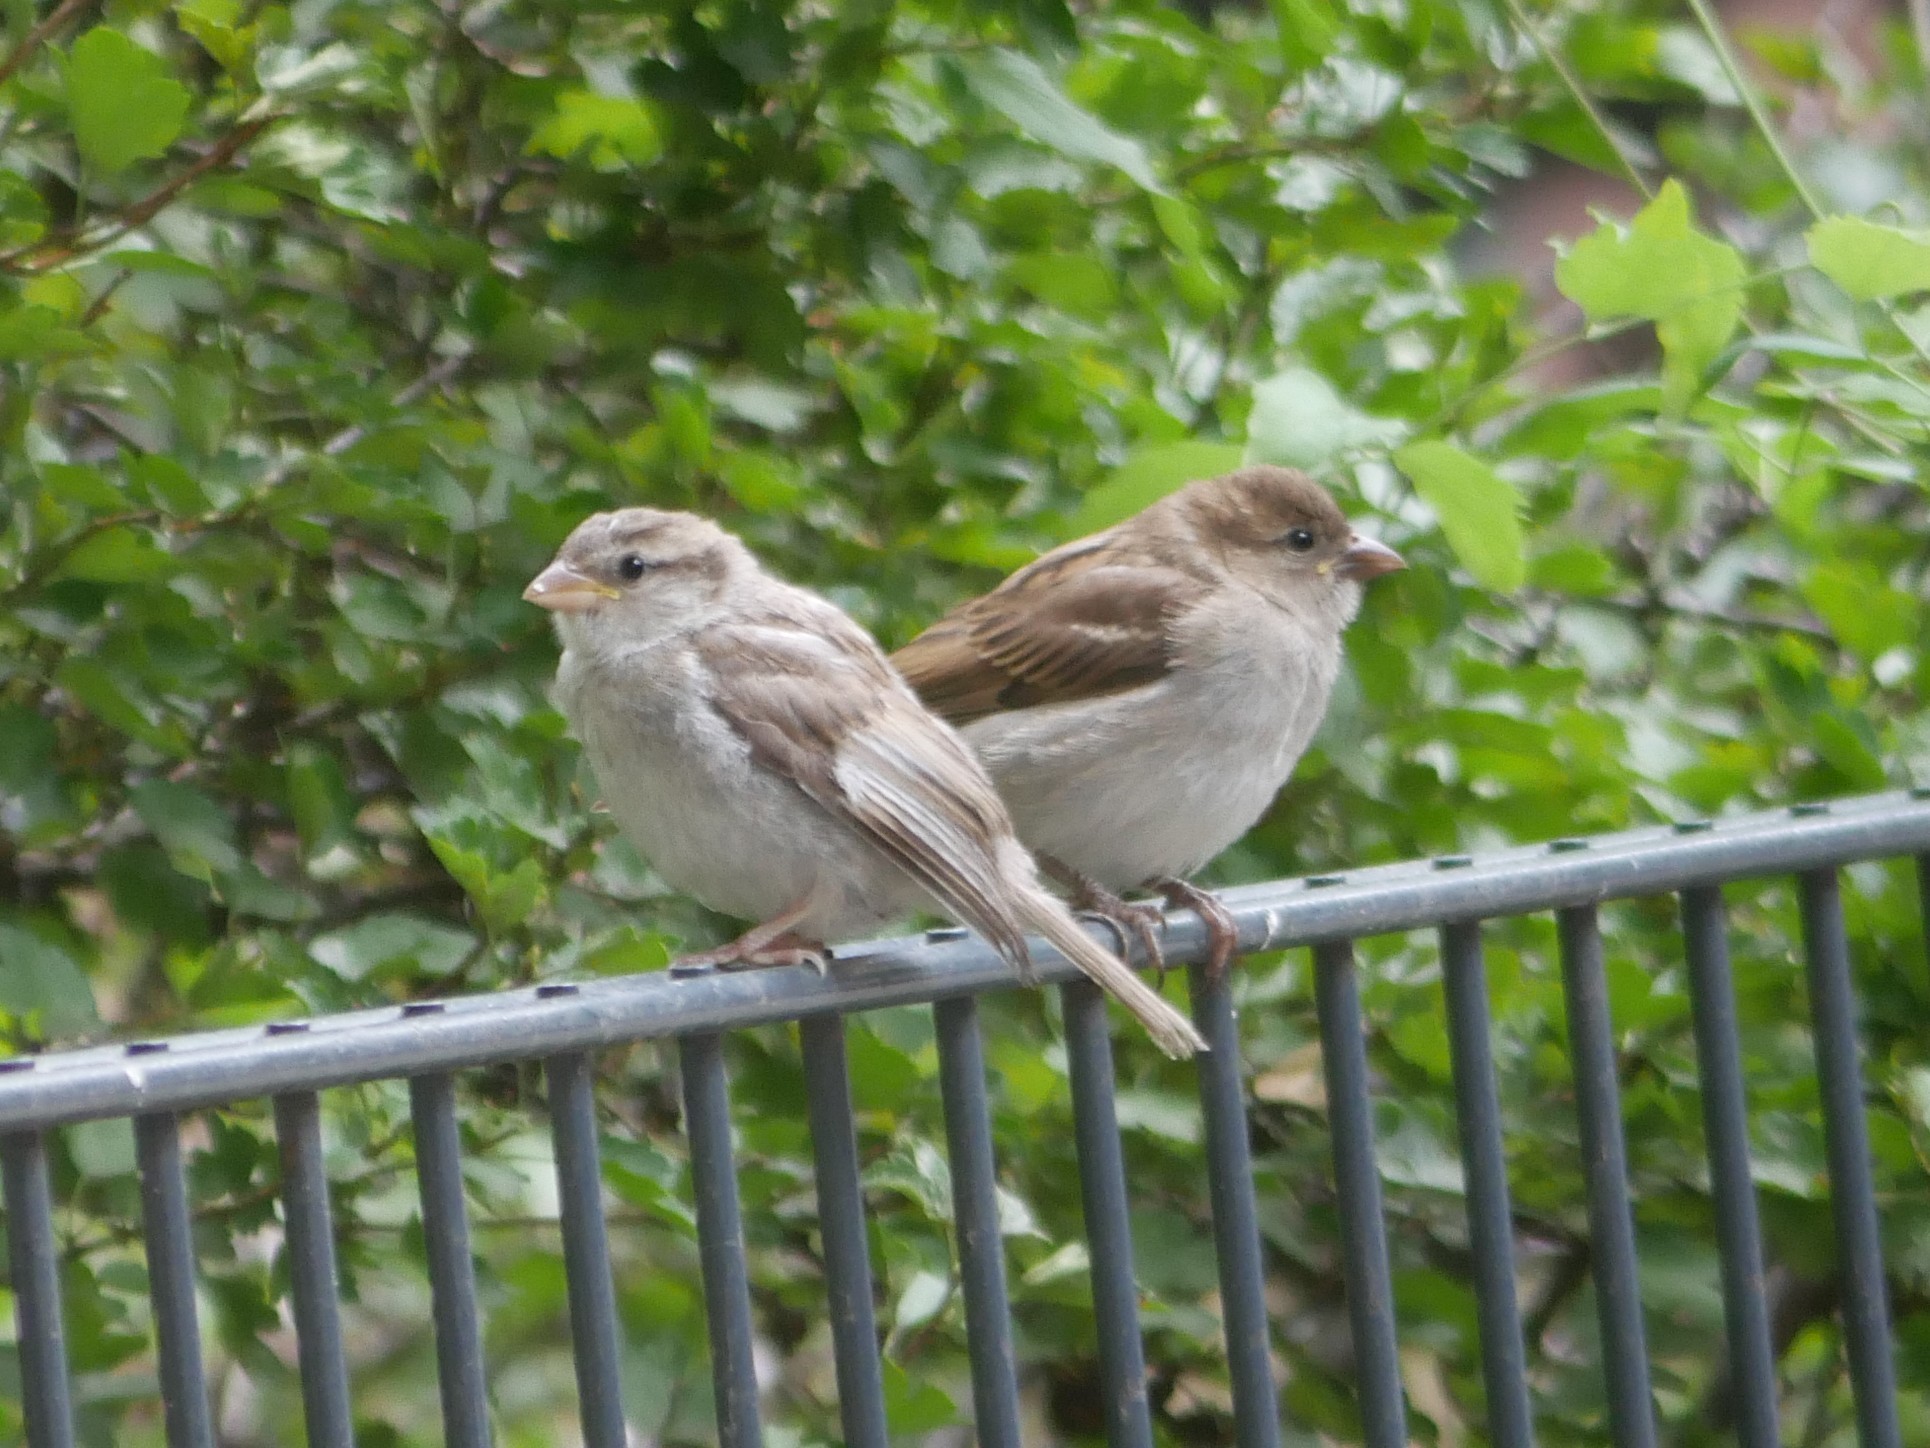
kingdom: Animalia
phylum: Chordata
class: Aves
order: Passeriformes
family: Passeridae
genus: Passer
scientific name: Passer domesticus
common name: House sparrow
